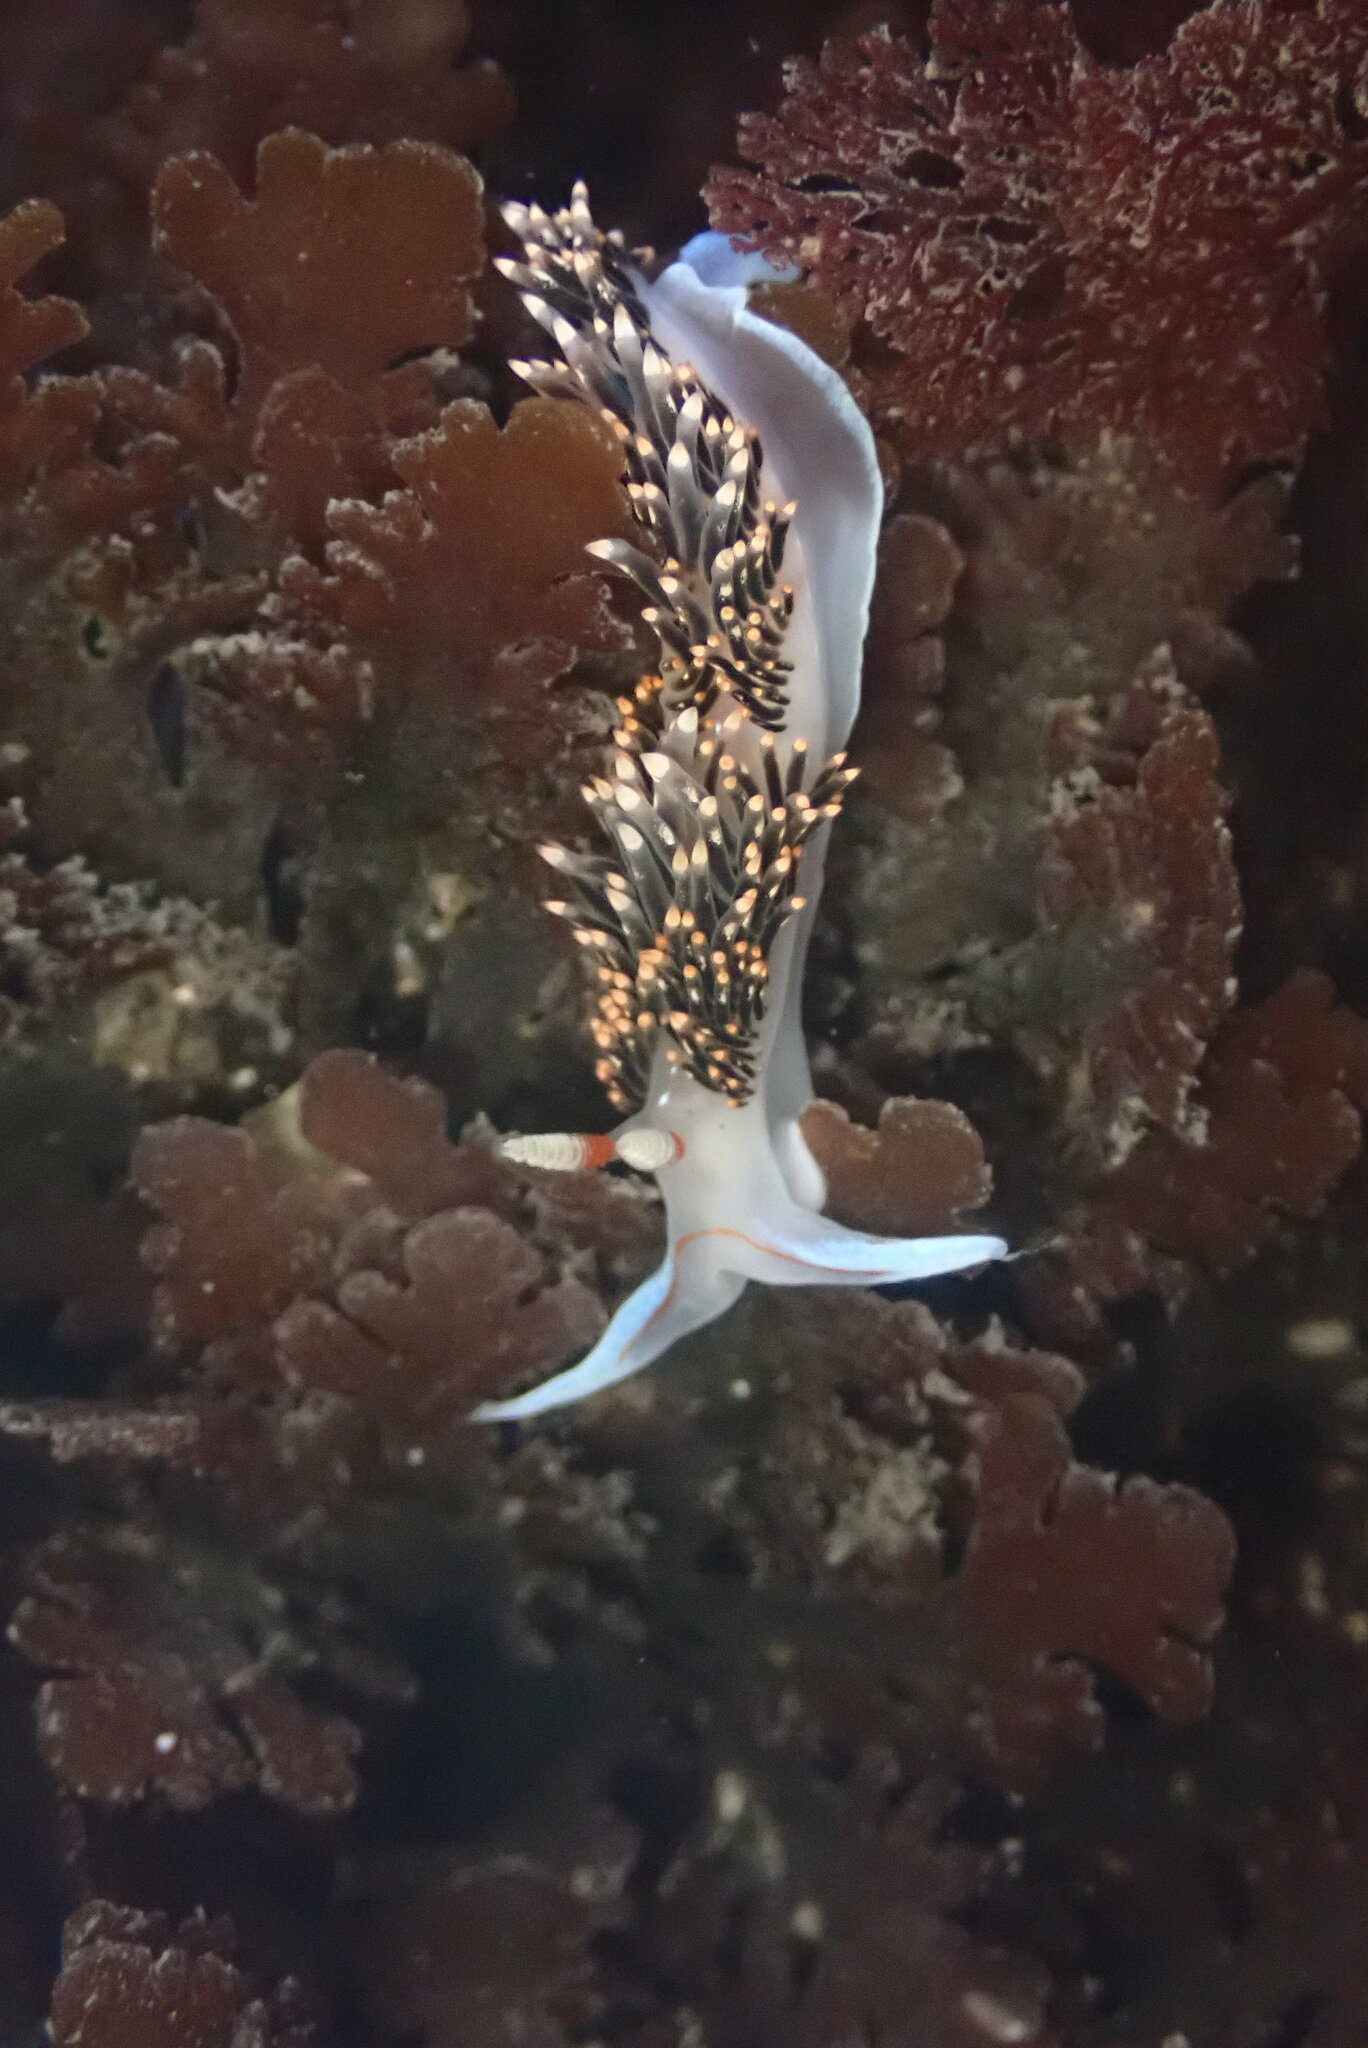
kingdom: Animalia
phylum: Mollusca
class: Gastropoda
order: Nudibranchia
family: Facelinidae
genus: Phidiana
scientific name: Phidiana hiltoni
